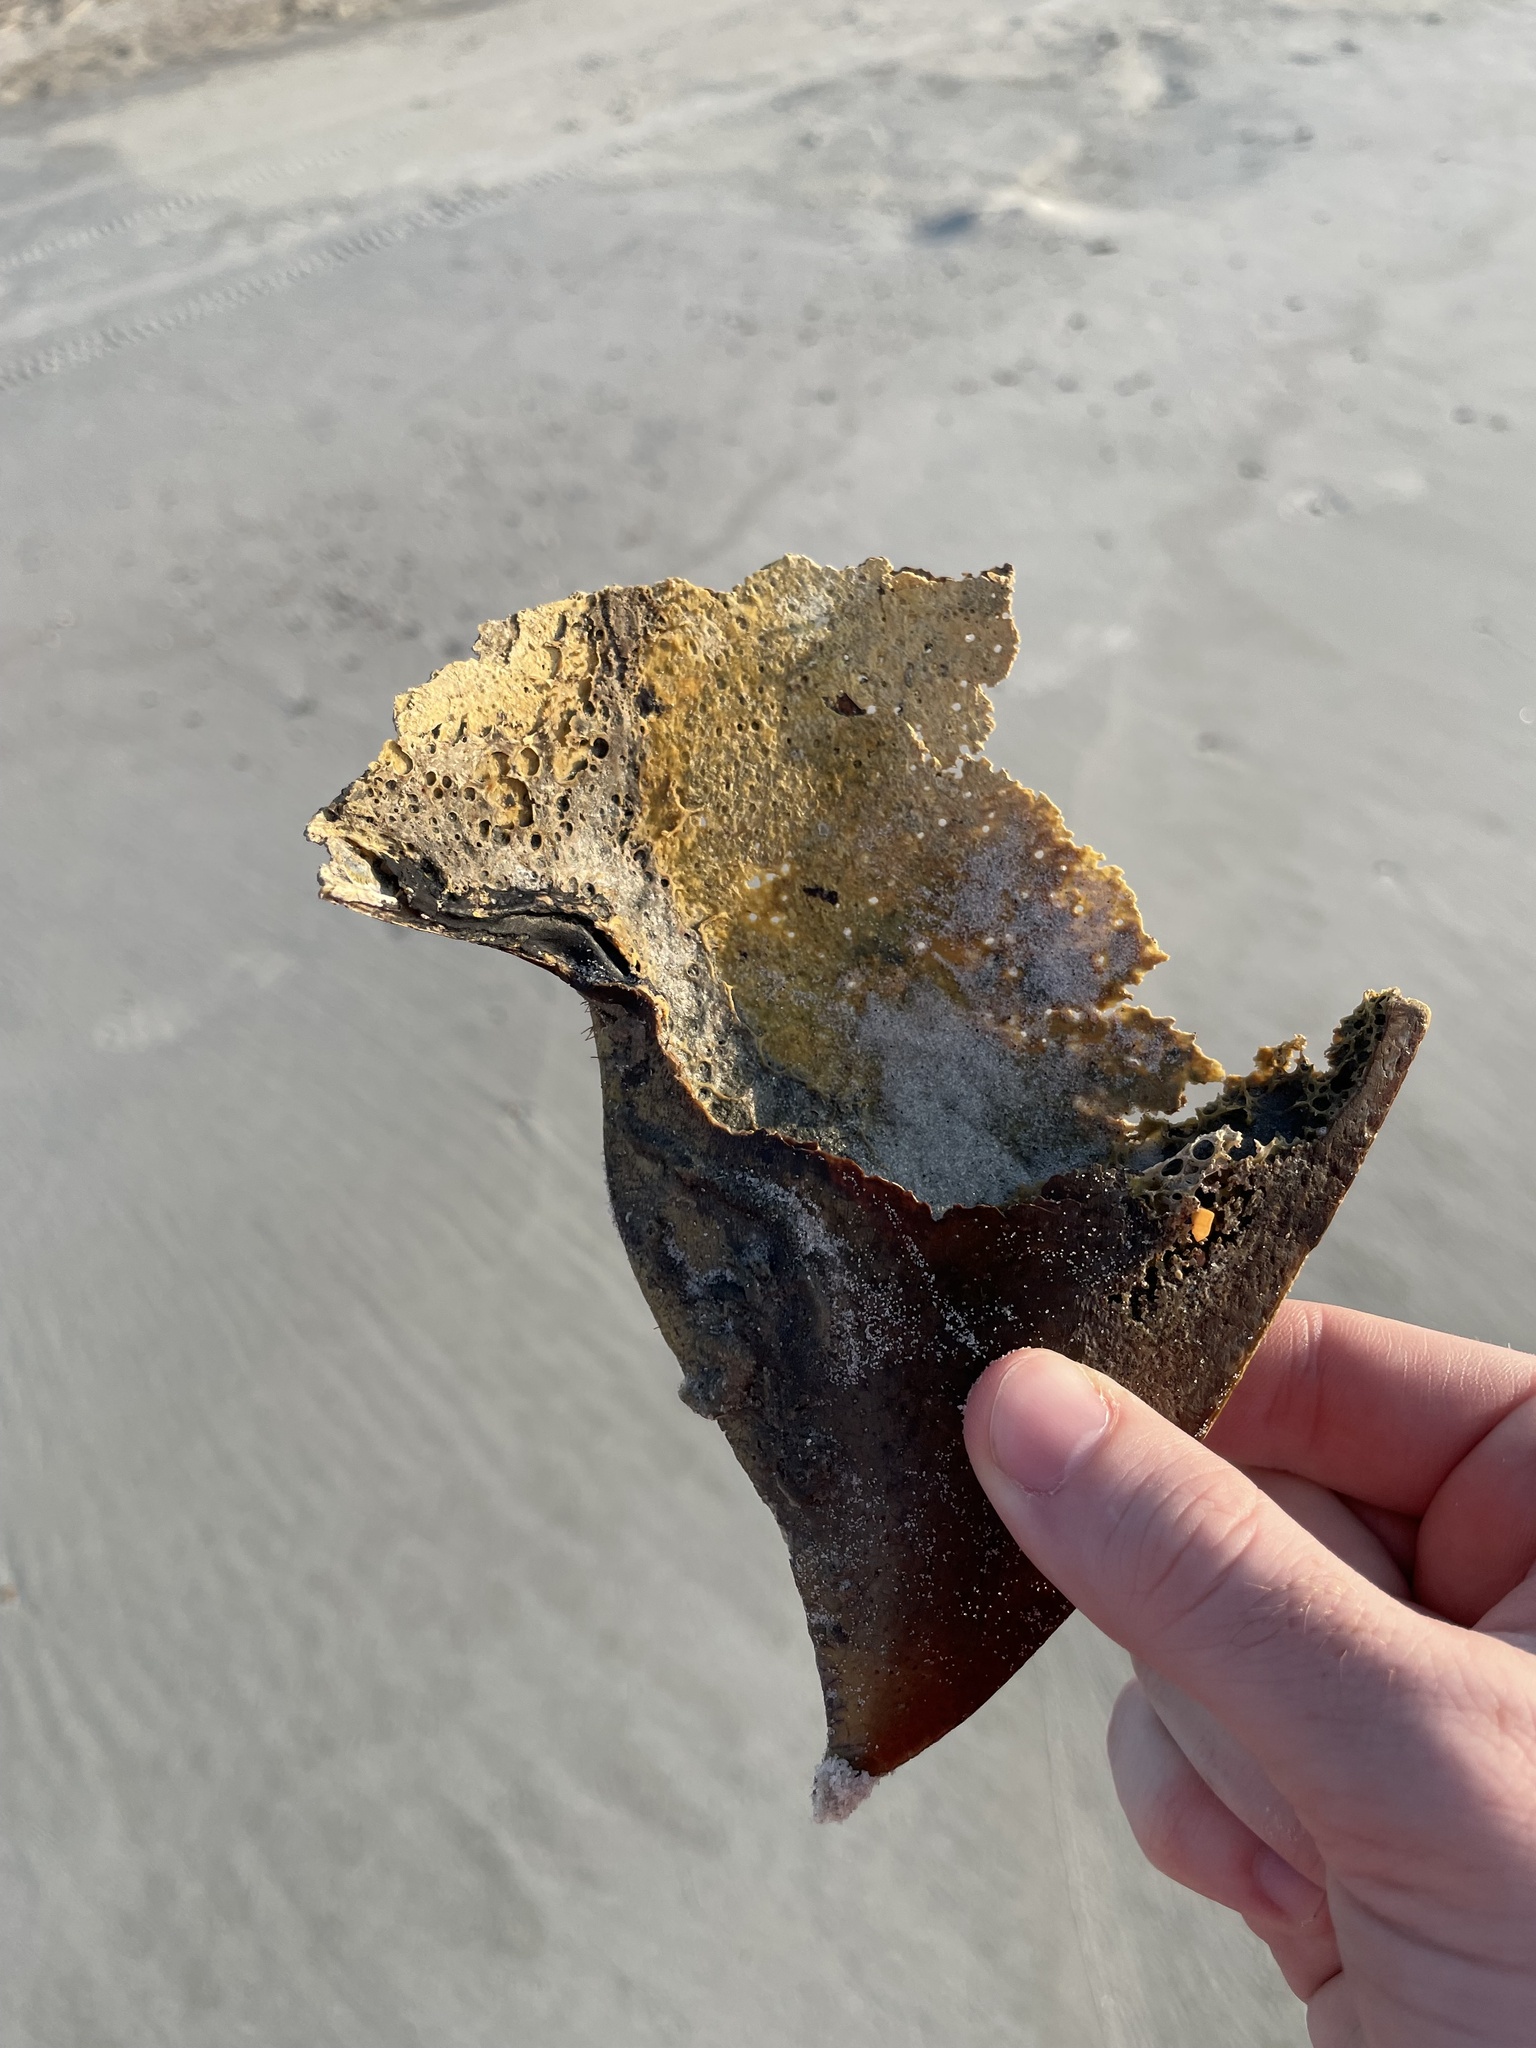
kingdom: Animalia
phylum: Arthropoda
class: Merostomata
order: Xiphosurida
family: Limulidae
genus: Limulus
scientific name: Limulus polyphemus
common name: Horseshoe crab
